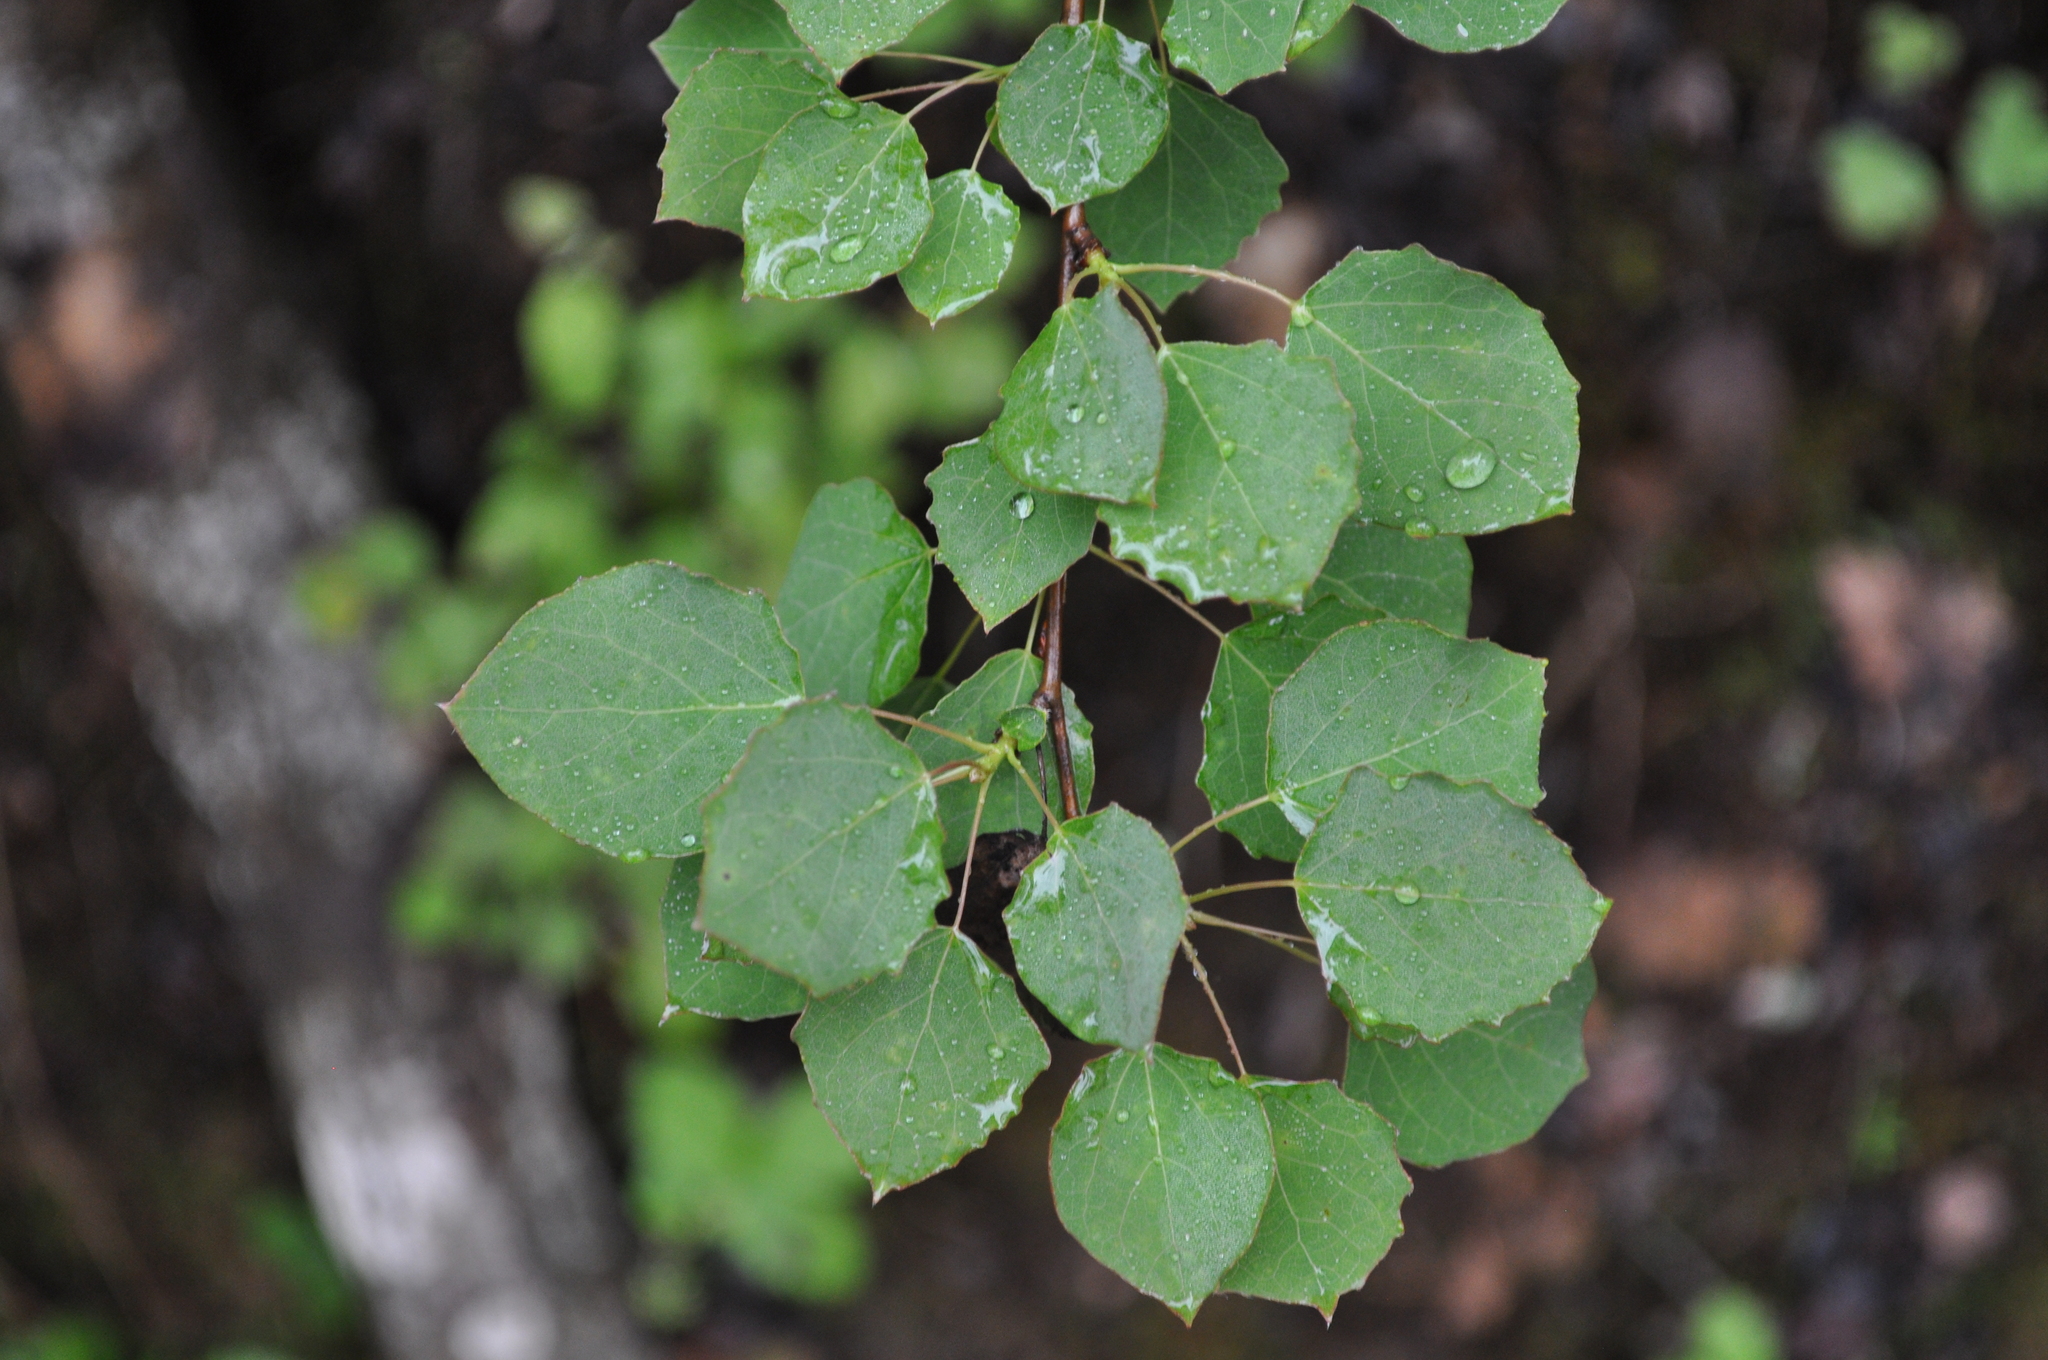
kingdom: Plantae
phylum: Tracheophyta
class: Magnoliopsida
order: Malpighiales
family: Salicaceae
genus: Populus
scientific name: Populus tremula
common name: European aspen
